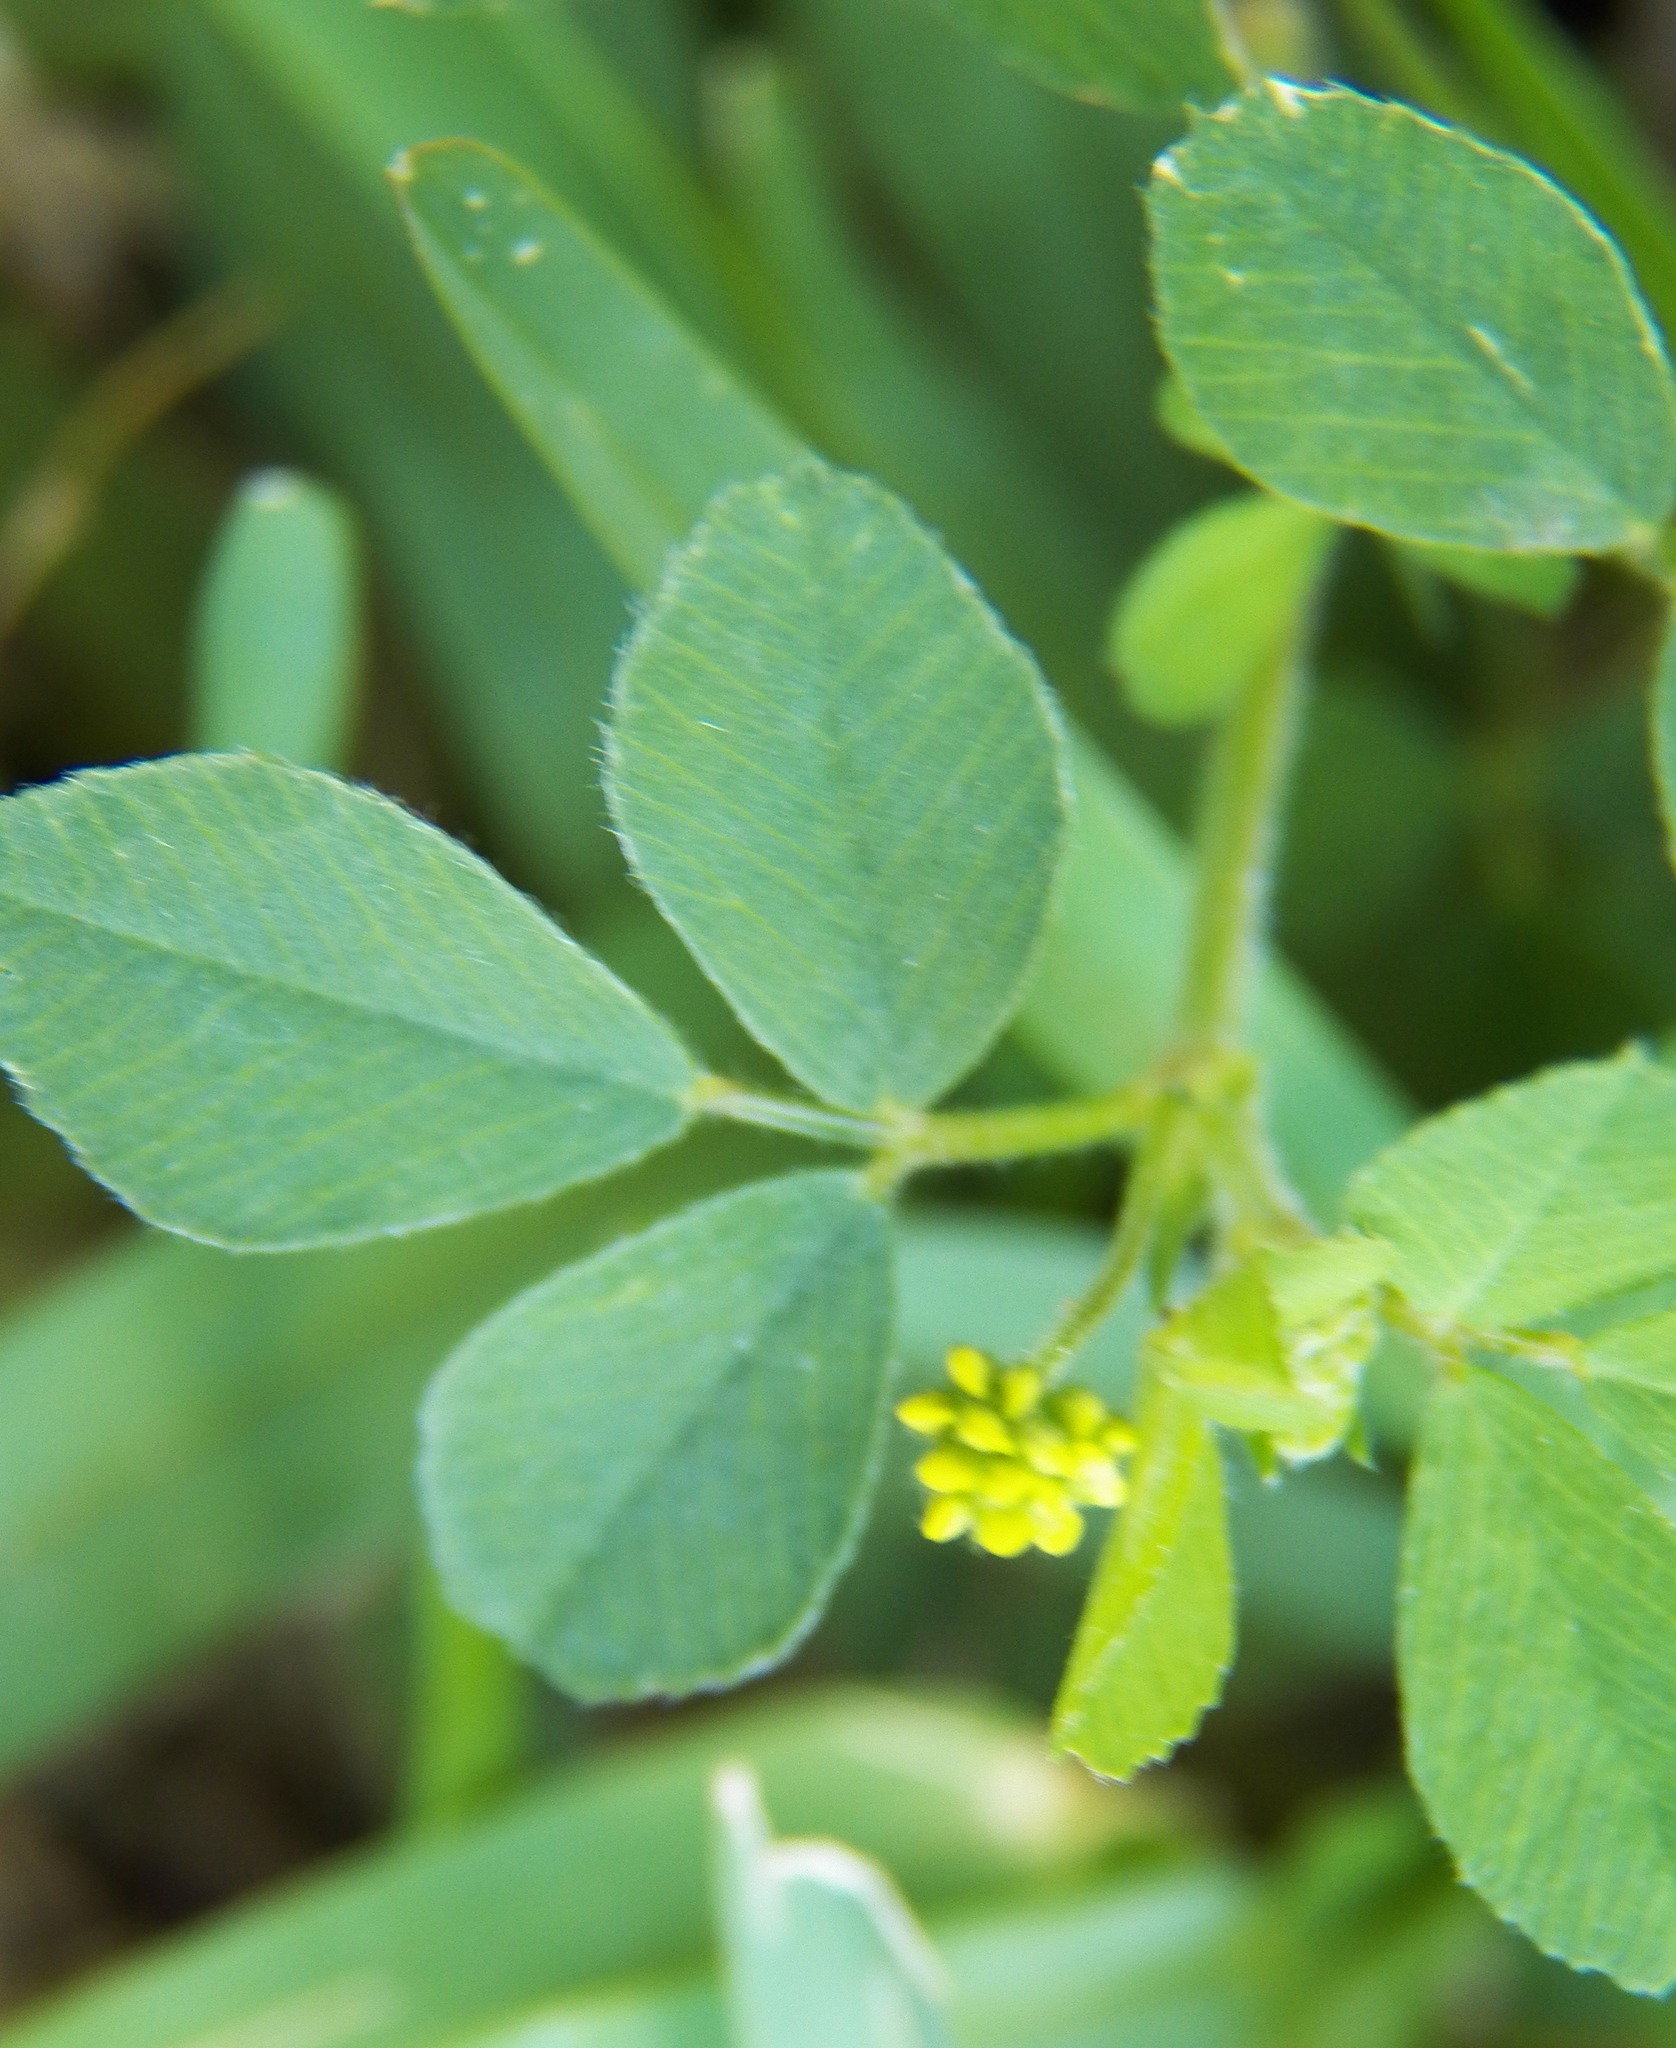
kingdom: Plantae
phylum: Tracheophyta
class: Magnoliopsida
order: Fabales
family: Fabaceae
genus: Medicago
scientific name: Medicago lupulina
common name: Black medick
